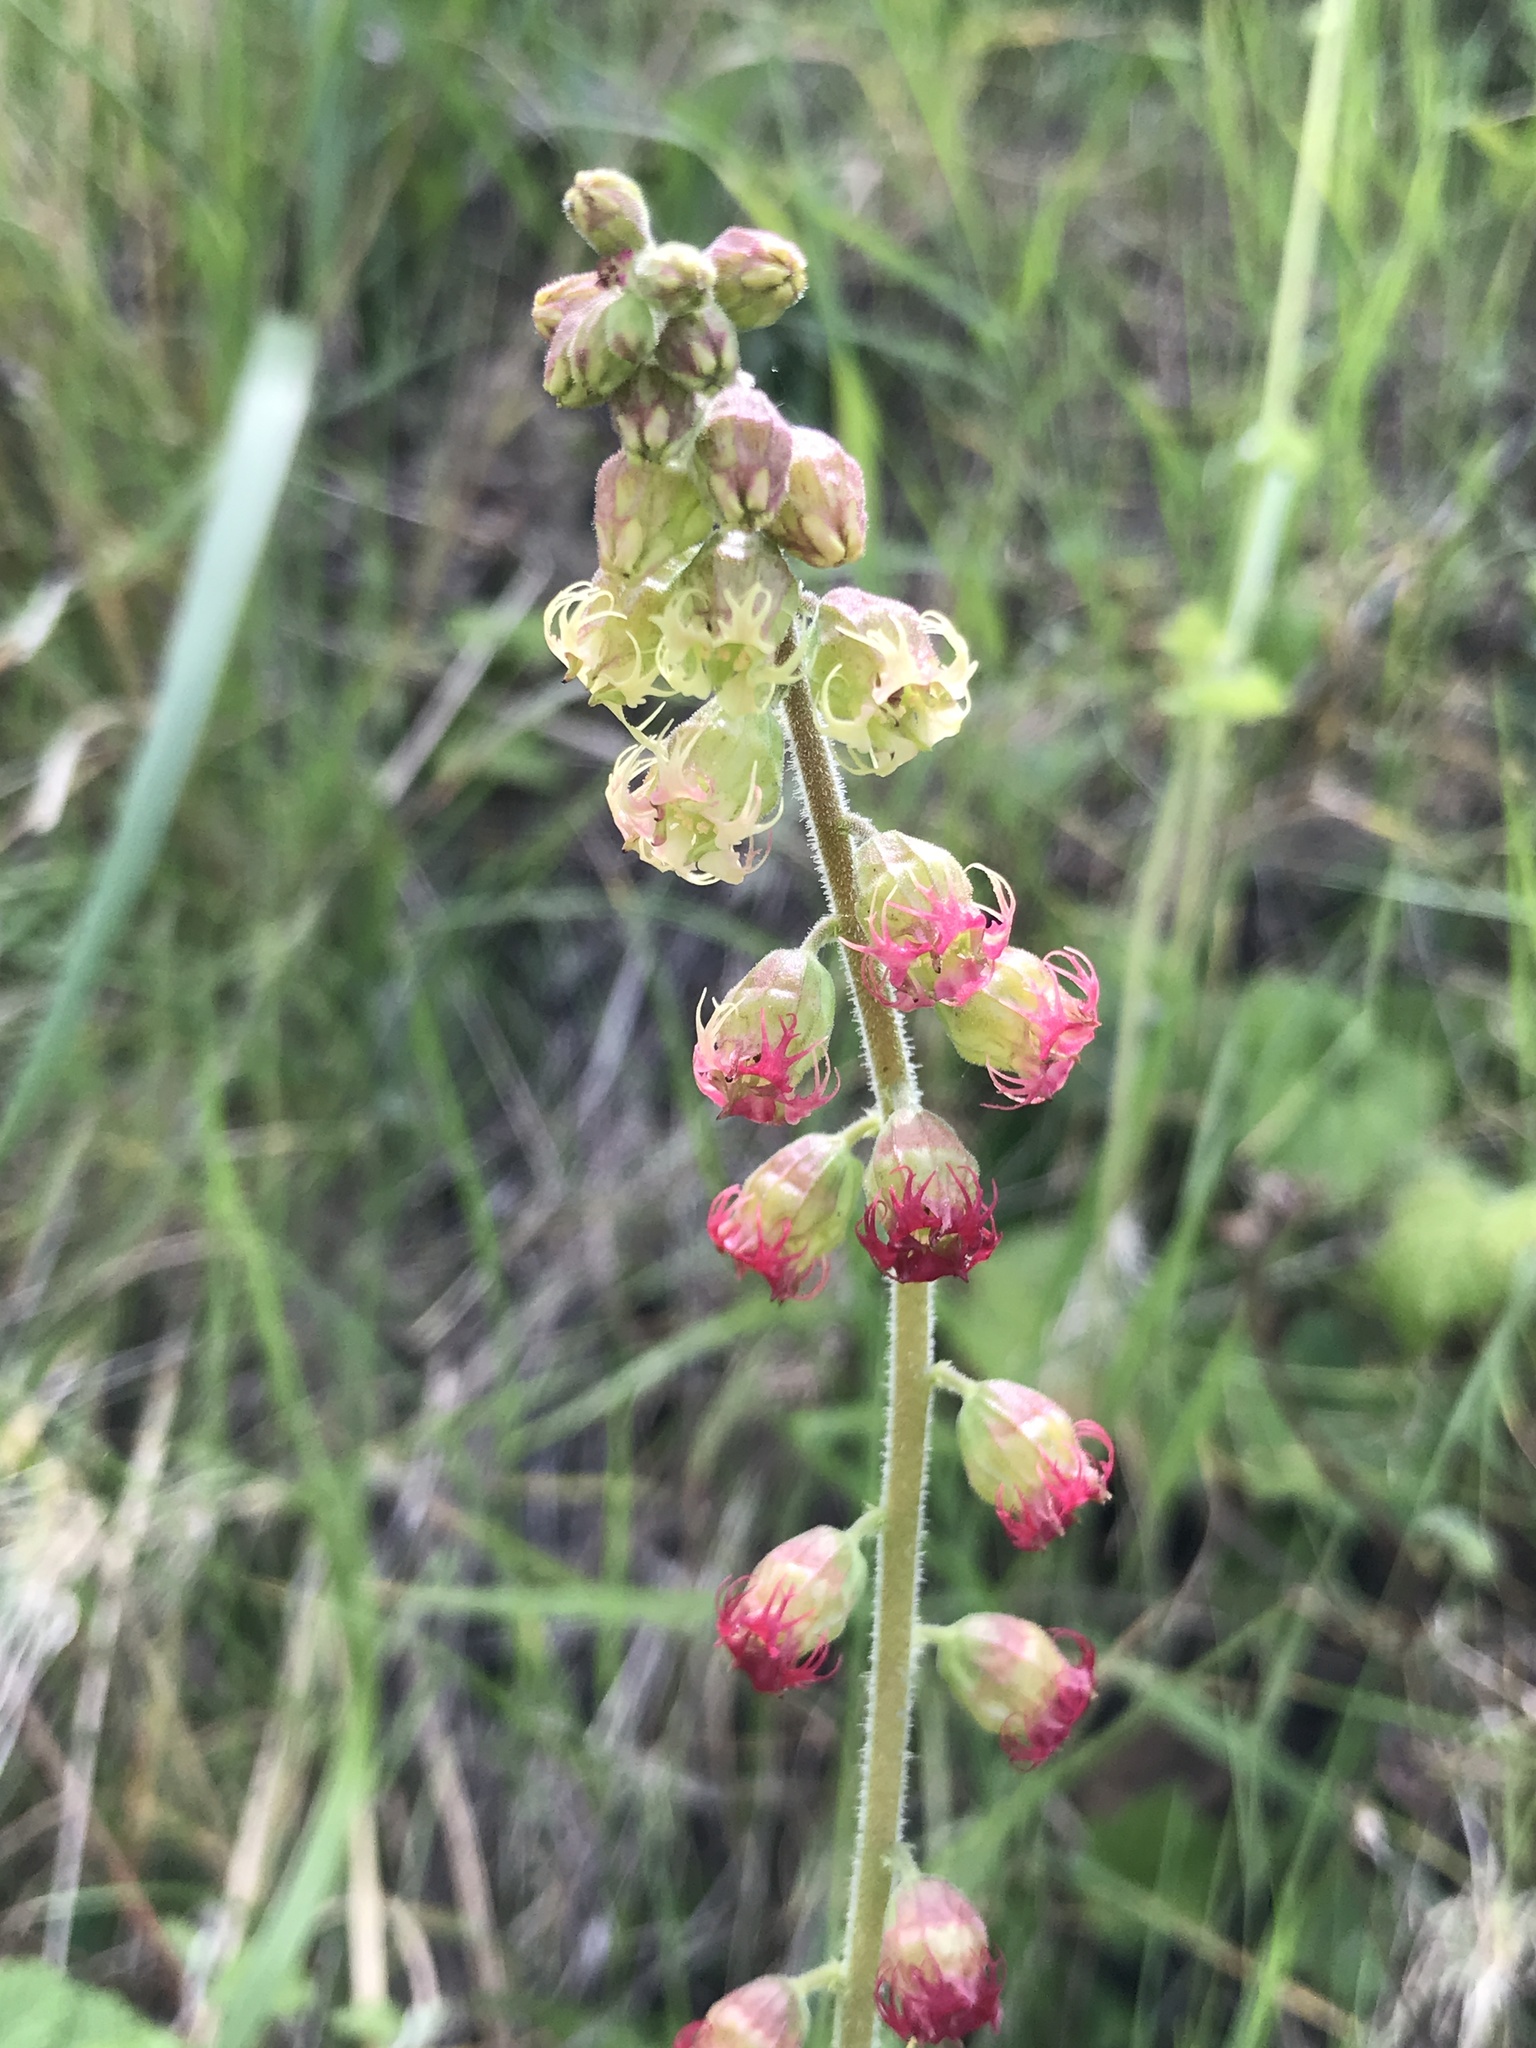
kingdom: Plantae
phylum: Tracheophyta
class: Magnoliopsida
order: Saxifragales
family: Saxifragaceae
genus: Tellima
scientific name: Tellima grandiflora
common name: Fringecups
